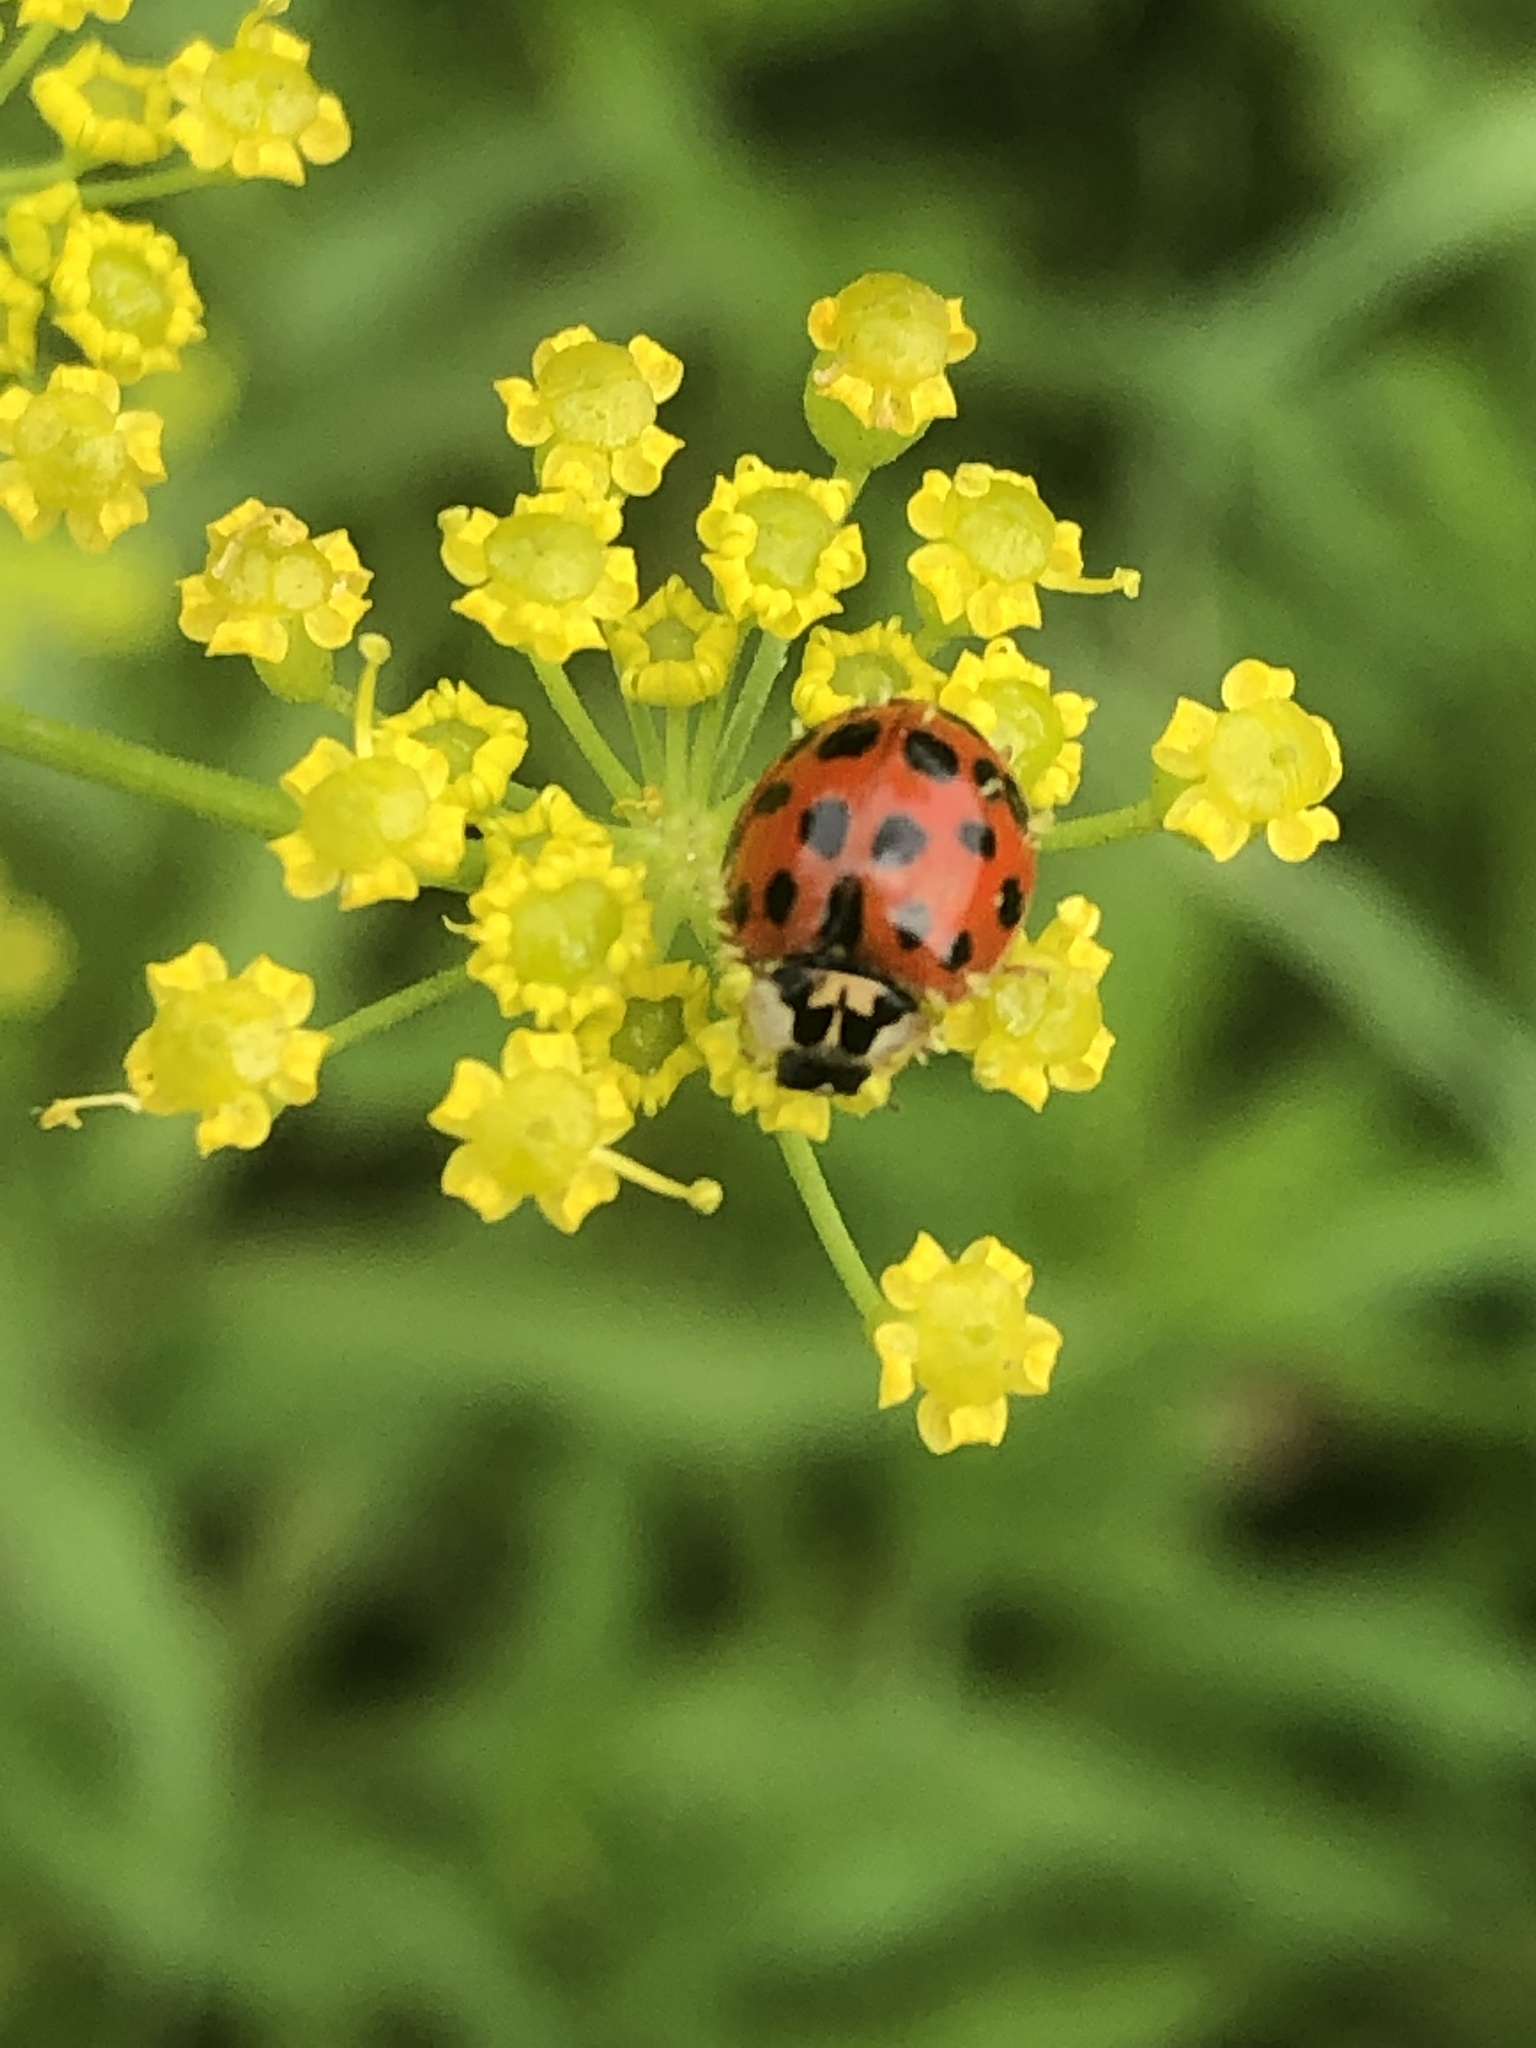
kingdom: Animalia
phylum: Arthropoda
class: Insecta
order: Coleoptera
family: Coccinellidae
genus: Harmonia
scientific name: Harmonia axyridis
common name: Harlequin ladybird
